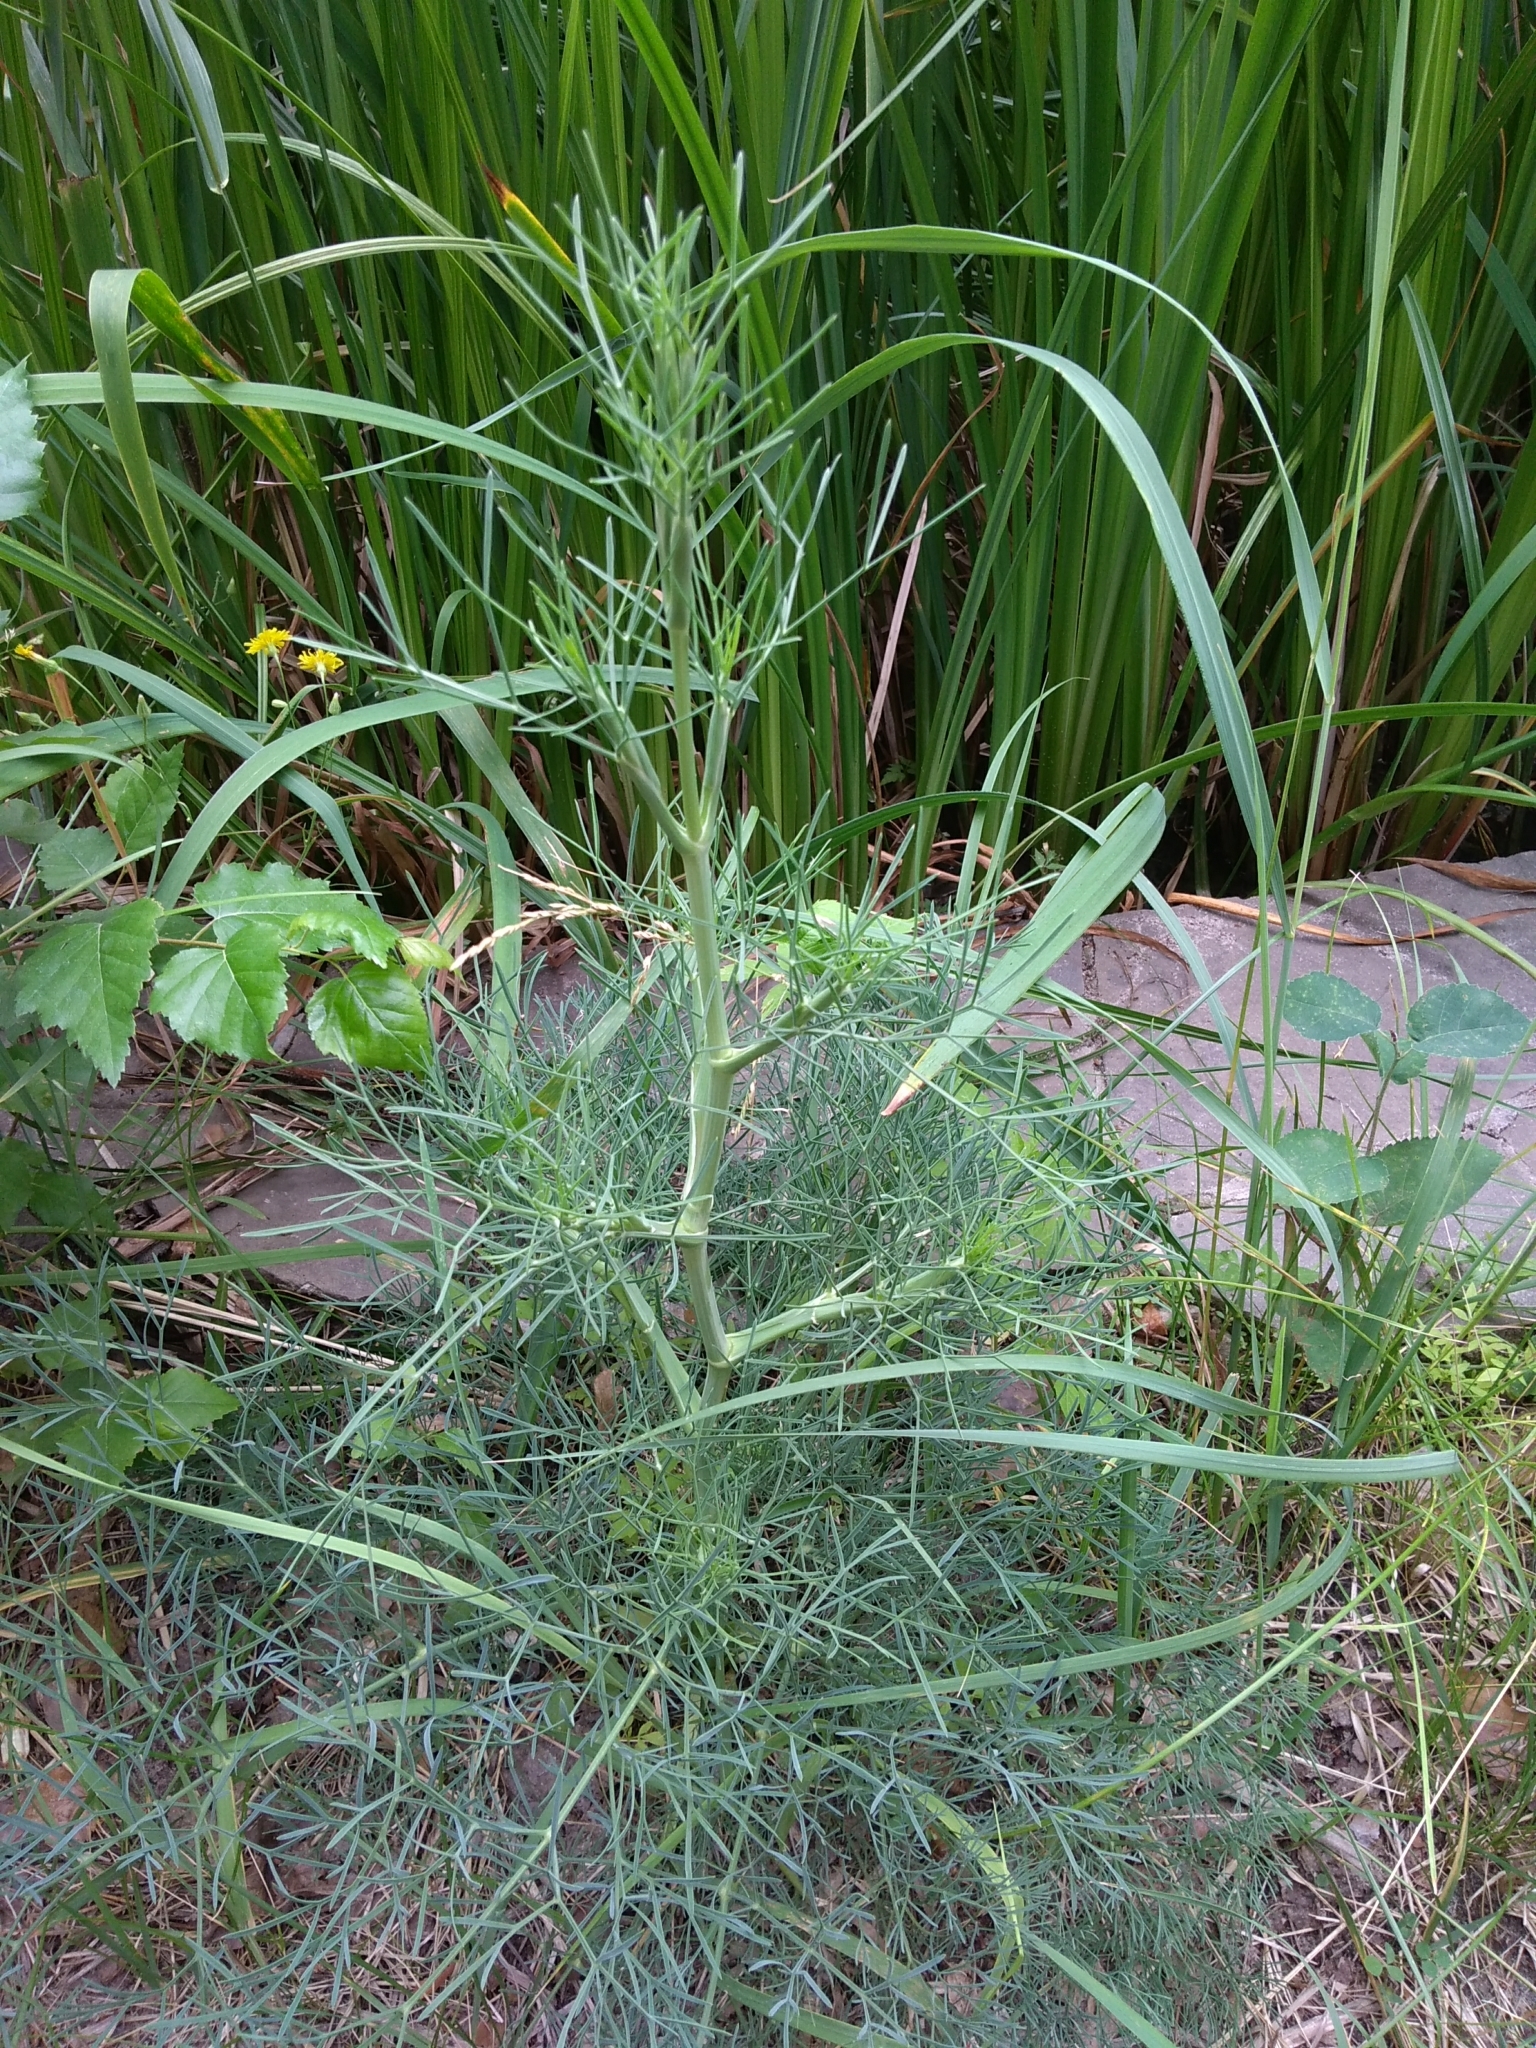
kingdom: Plantae
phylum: Tracheophyta
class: Magnoliopsida
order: Apiales
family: Apiaceae
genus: Seseli
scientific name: Seseli arenarium
